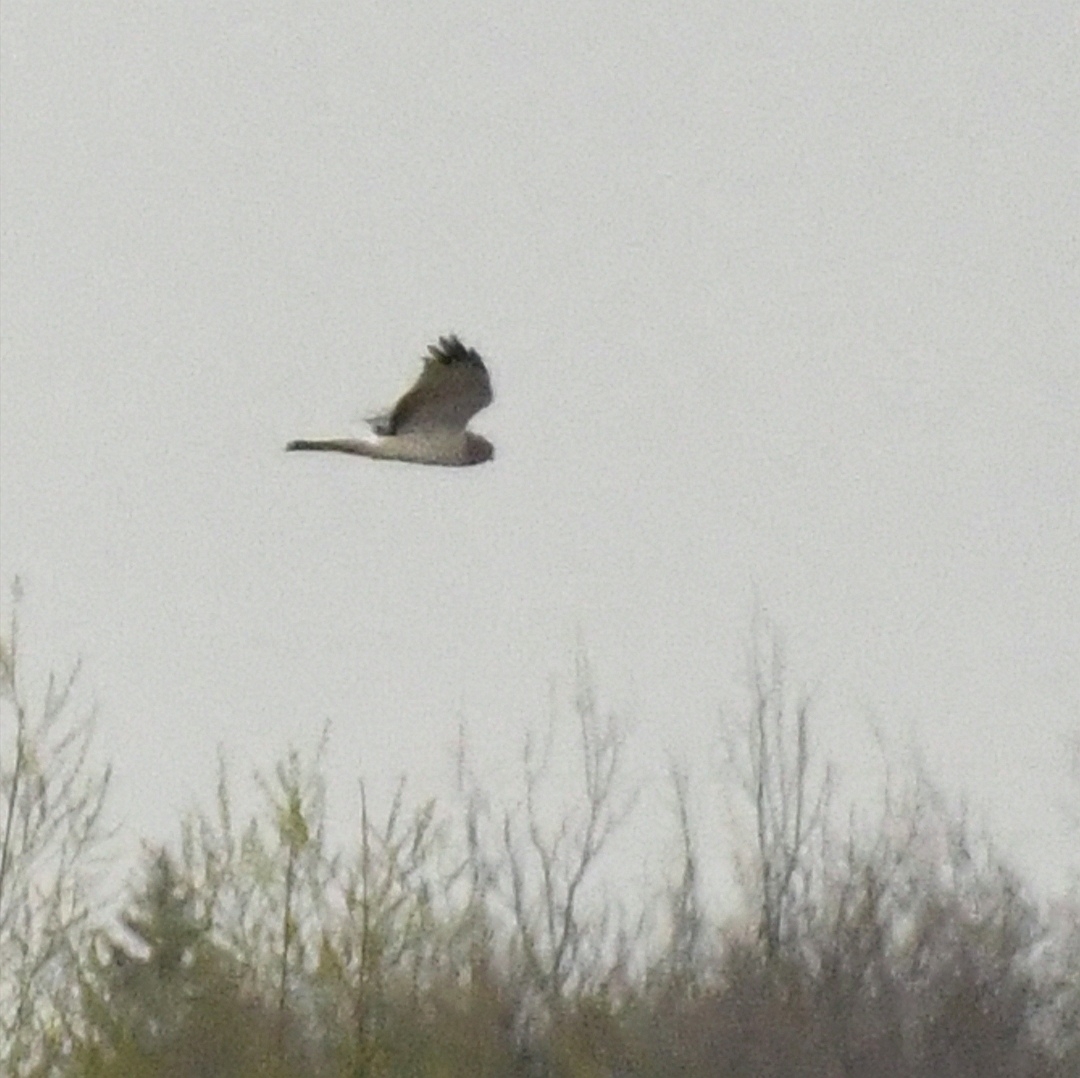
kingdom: Animalia
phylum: Chordata
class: Aves
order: Accipitriformes
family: Accipitridae
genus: Circus
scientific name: Circus cyaneus
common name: Hen harrier
